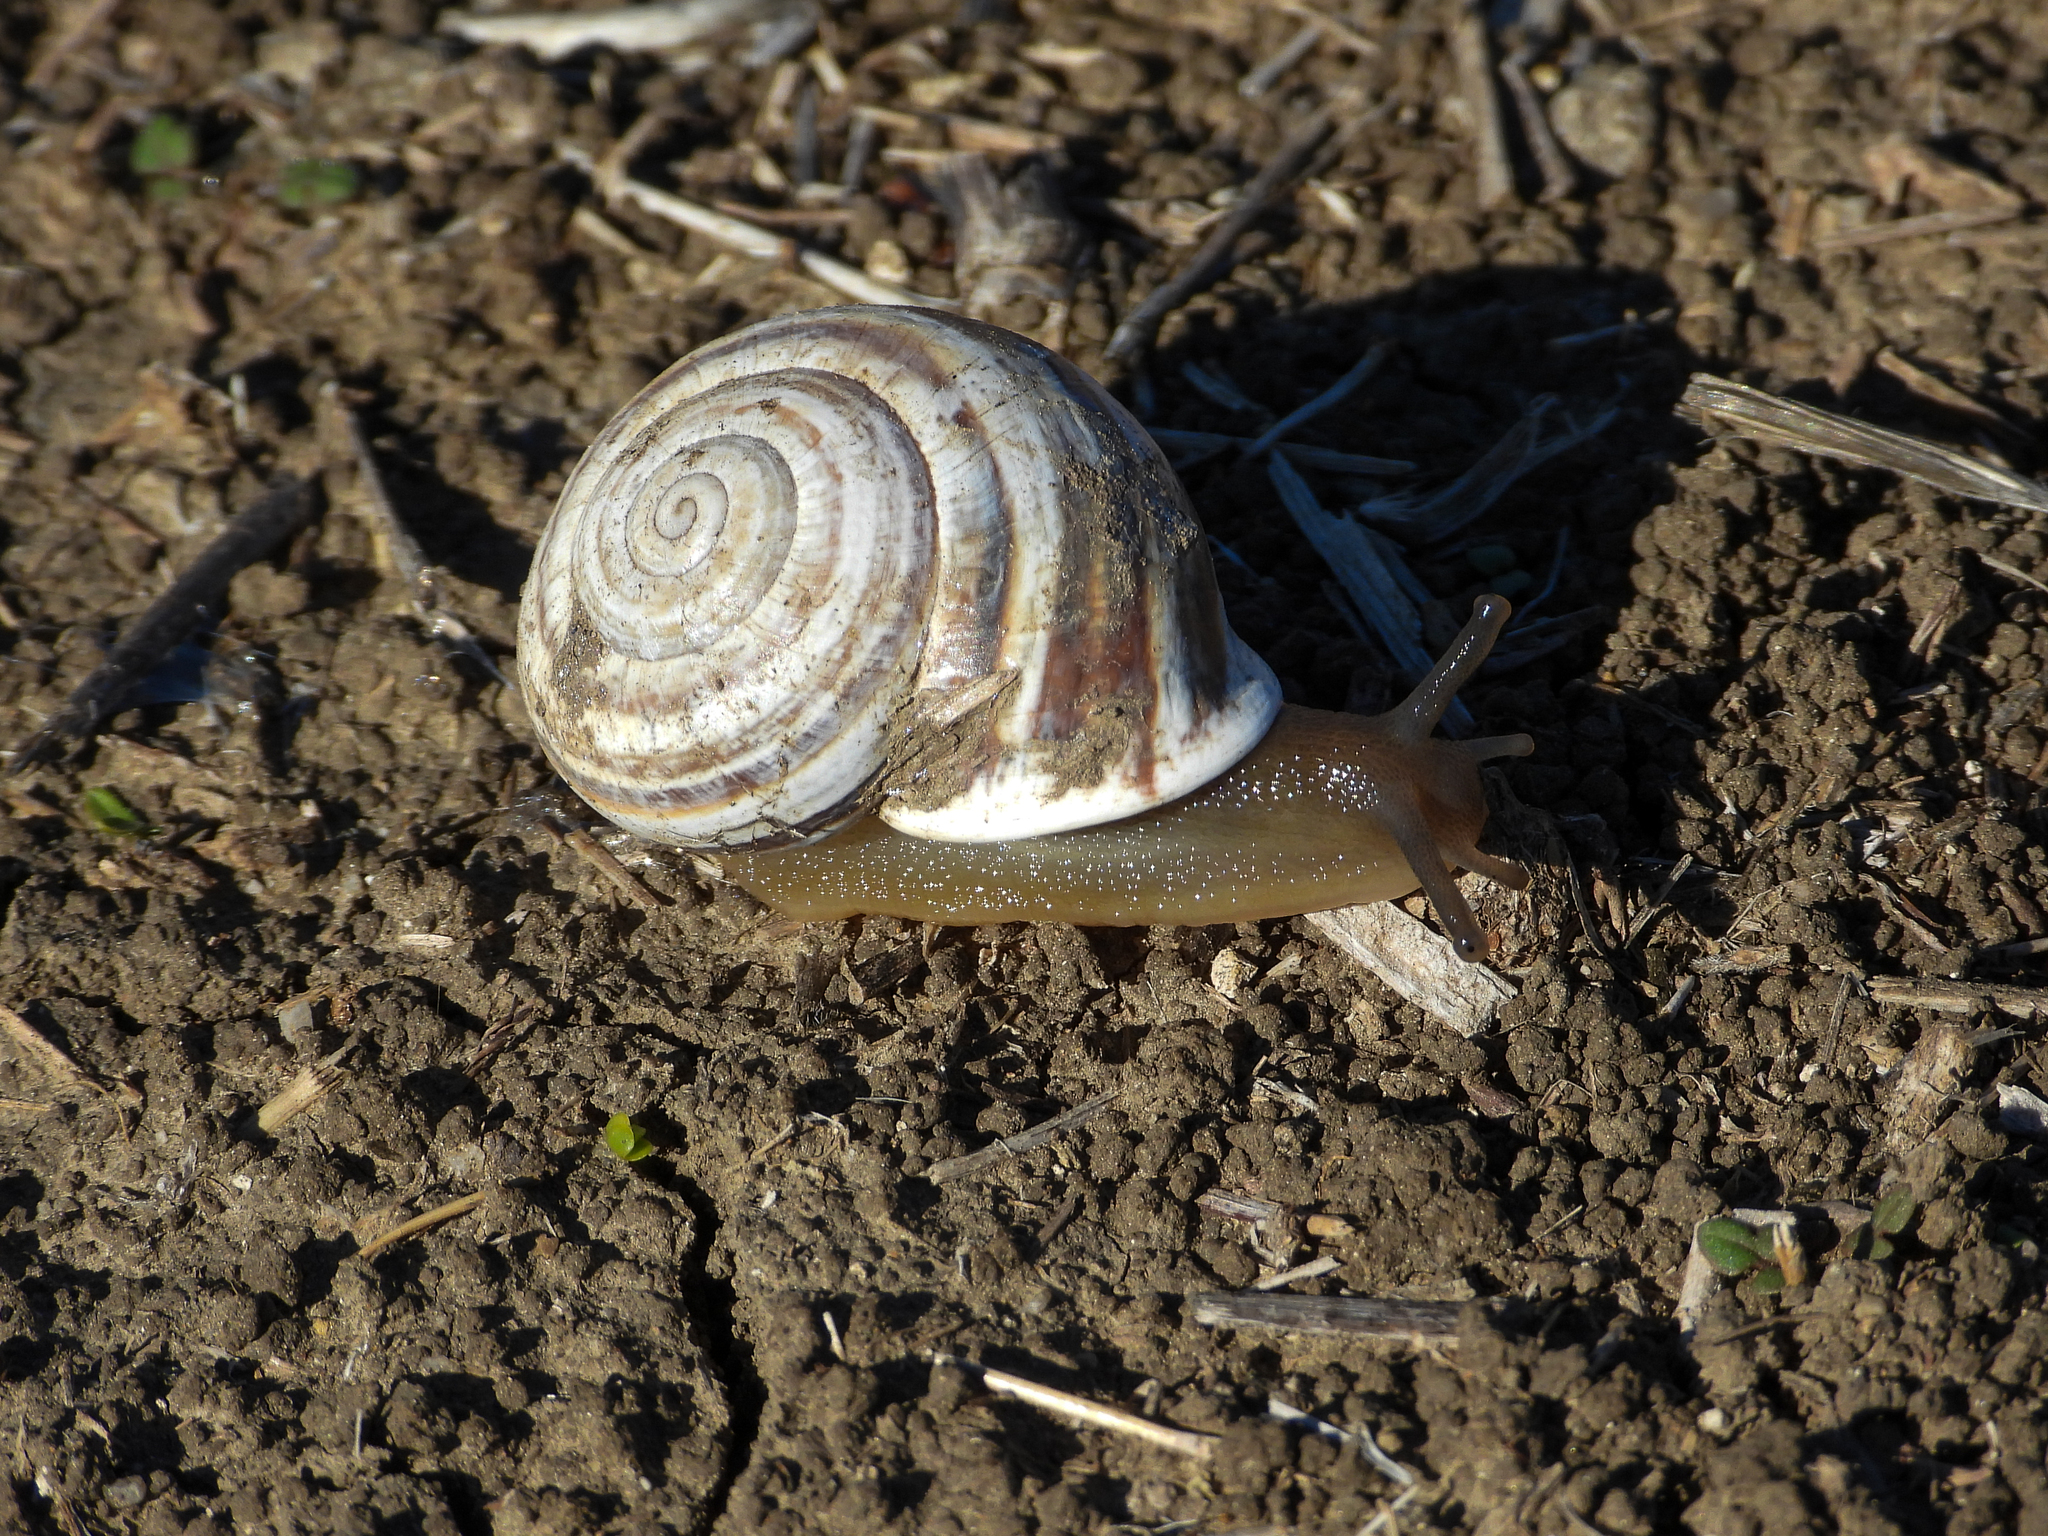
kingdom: Animalia
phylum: Mollusca
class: Gastropoda
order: Stylommatophora
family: Helicidae
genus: Otala
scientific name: Otala lactea
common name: Milk snail
